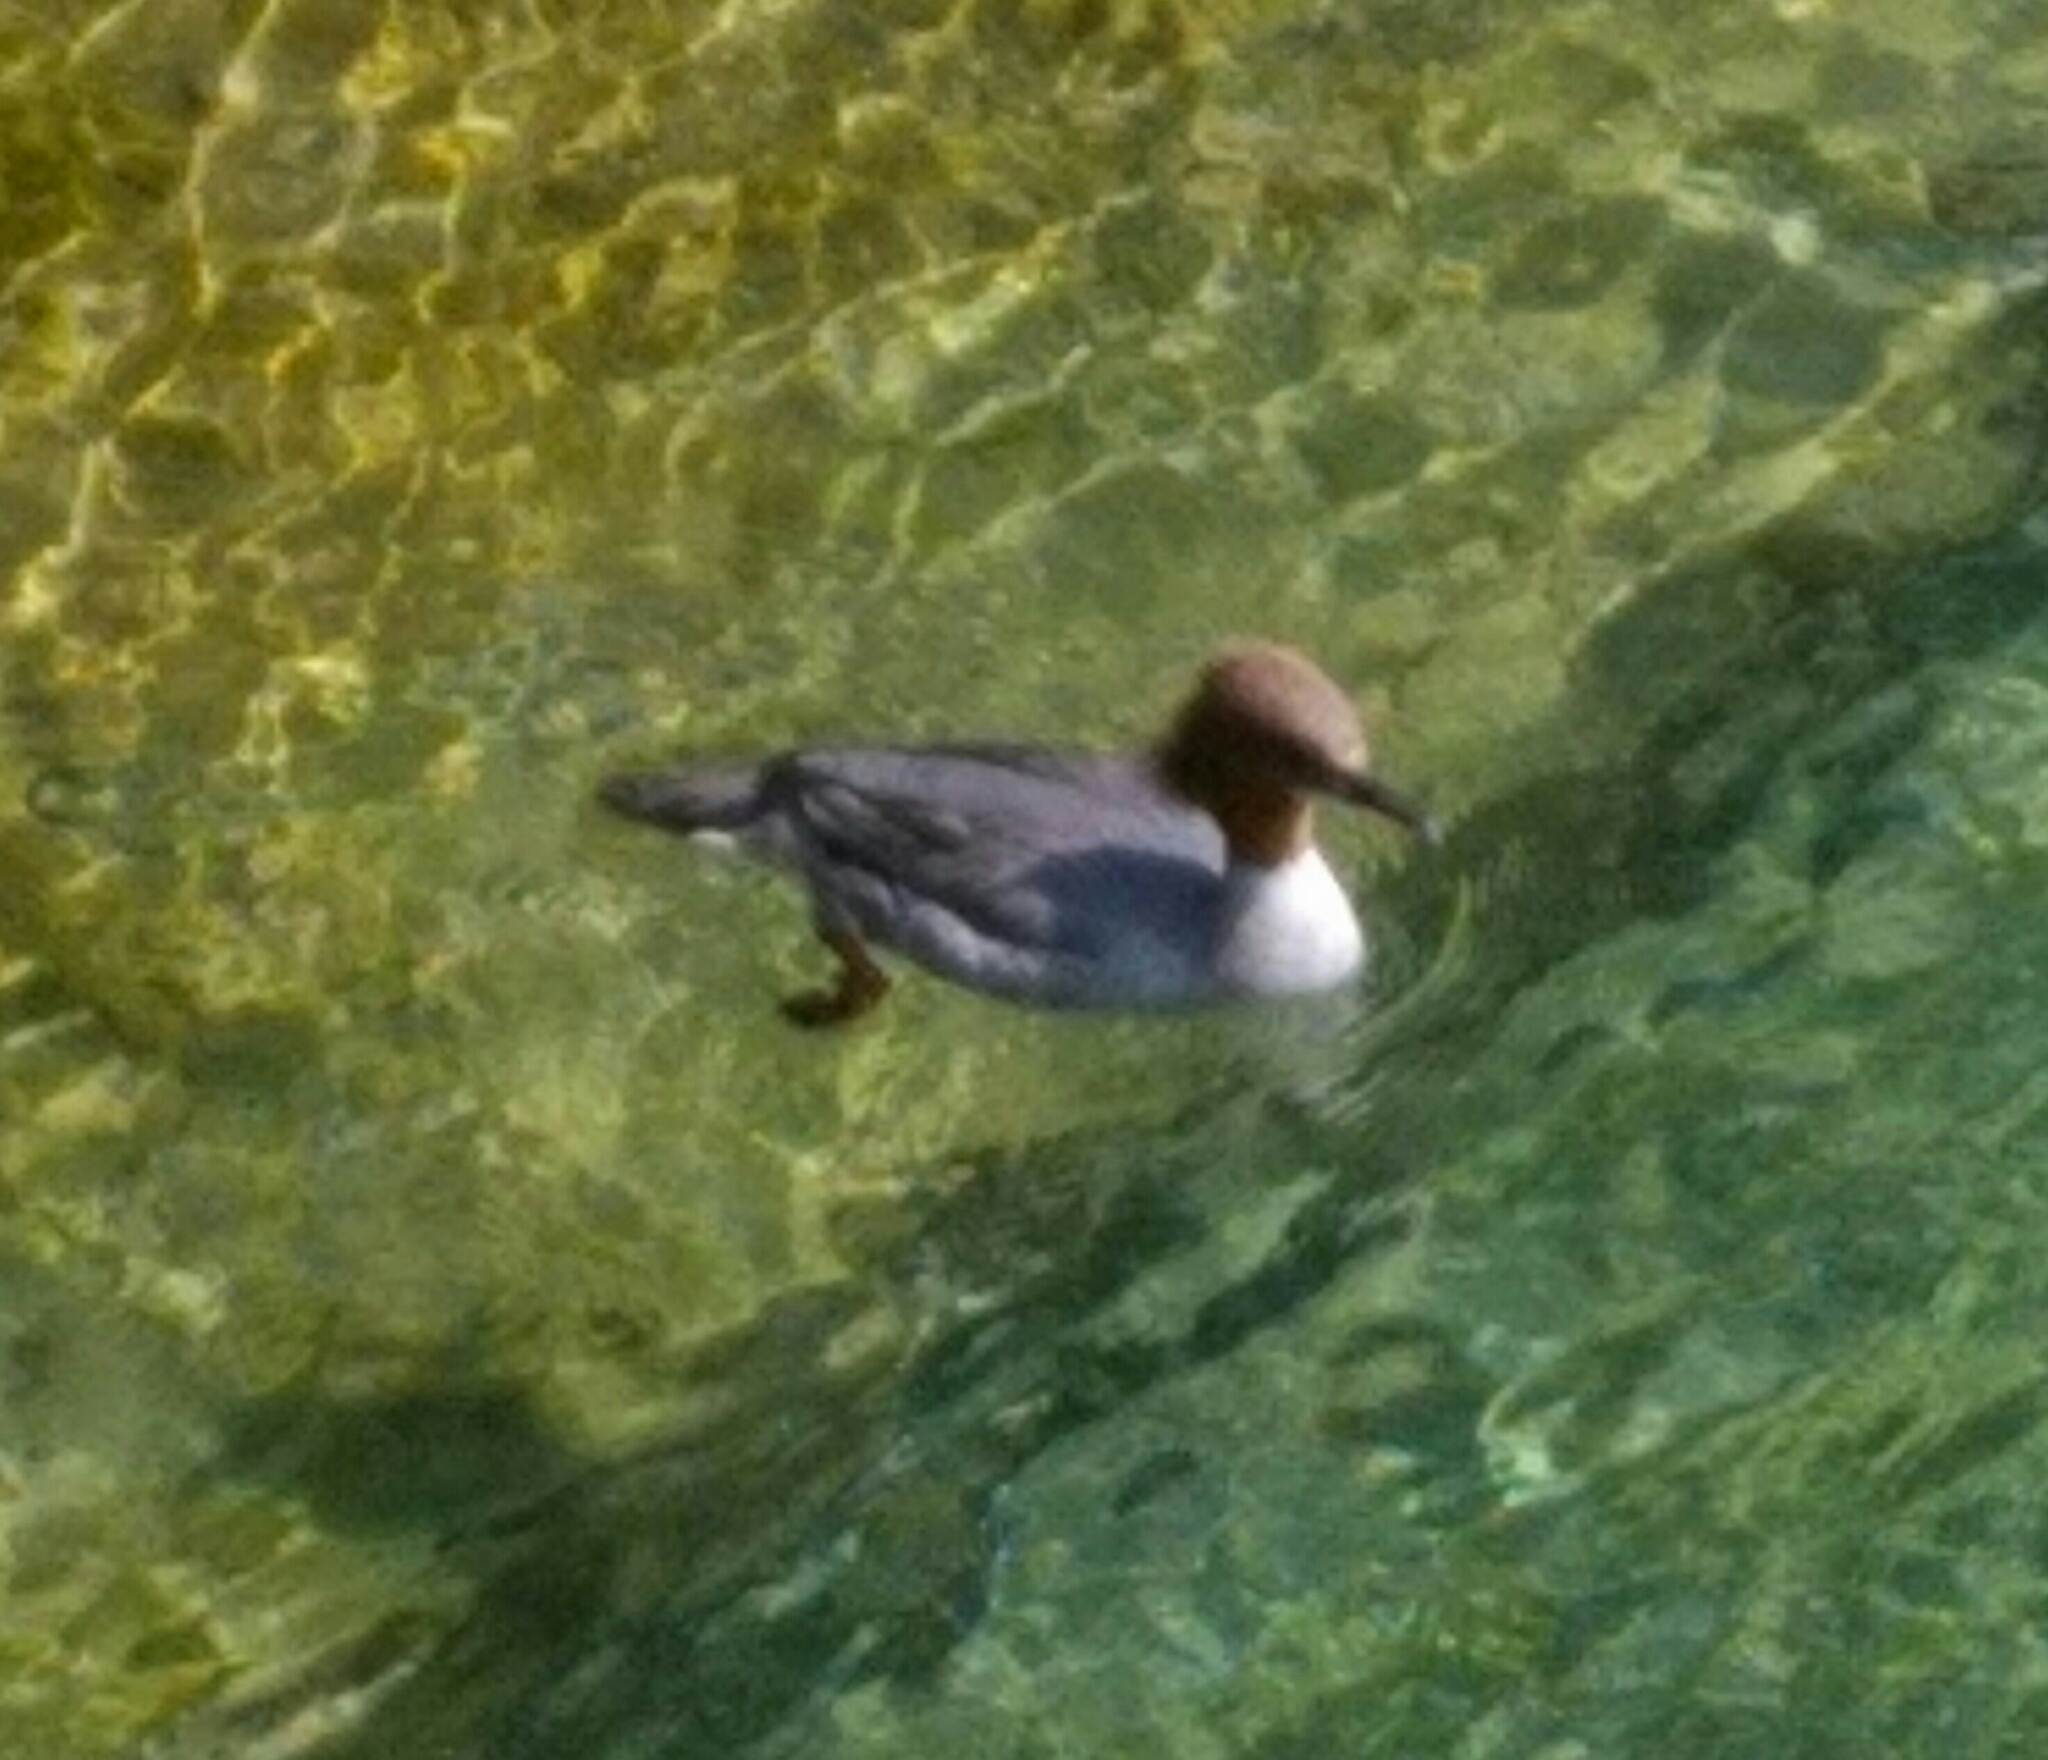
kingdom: Animalia
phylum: Chordata
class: Aves
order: Anseriformes
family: Anatidae
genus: Mergus
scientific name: Mergus merganser
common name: Common merganser
